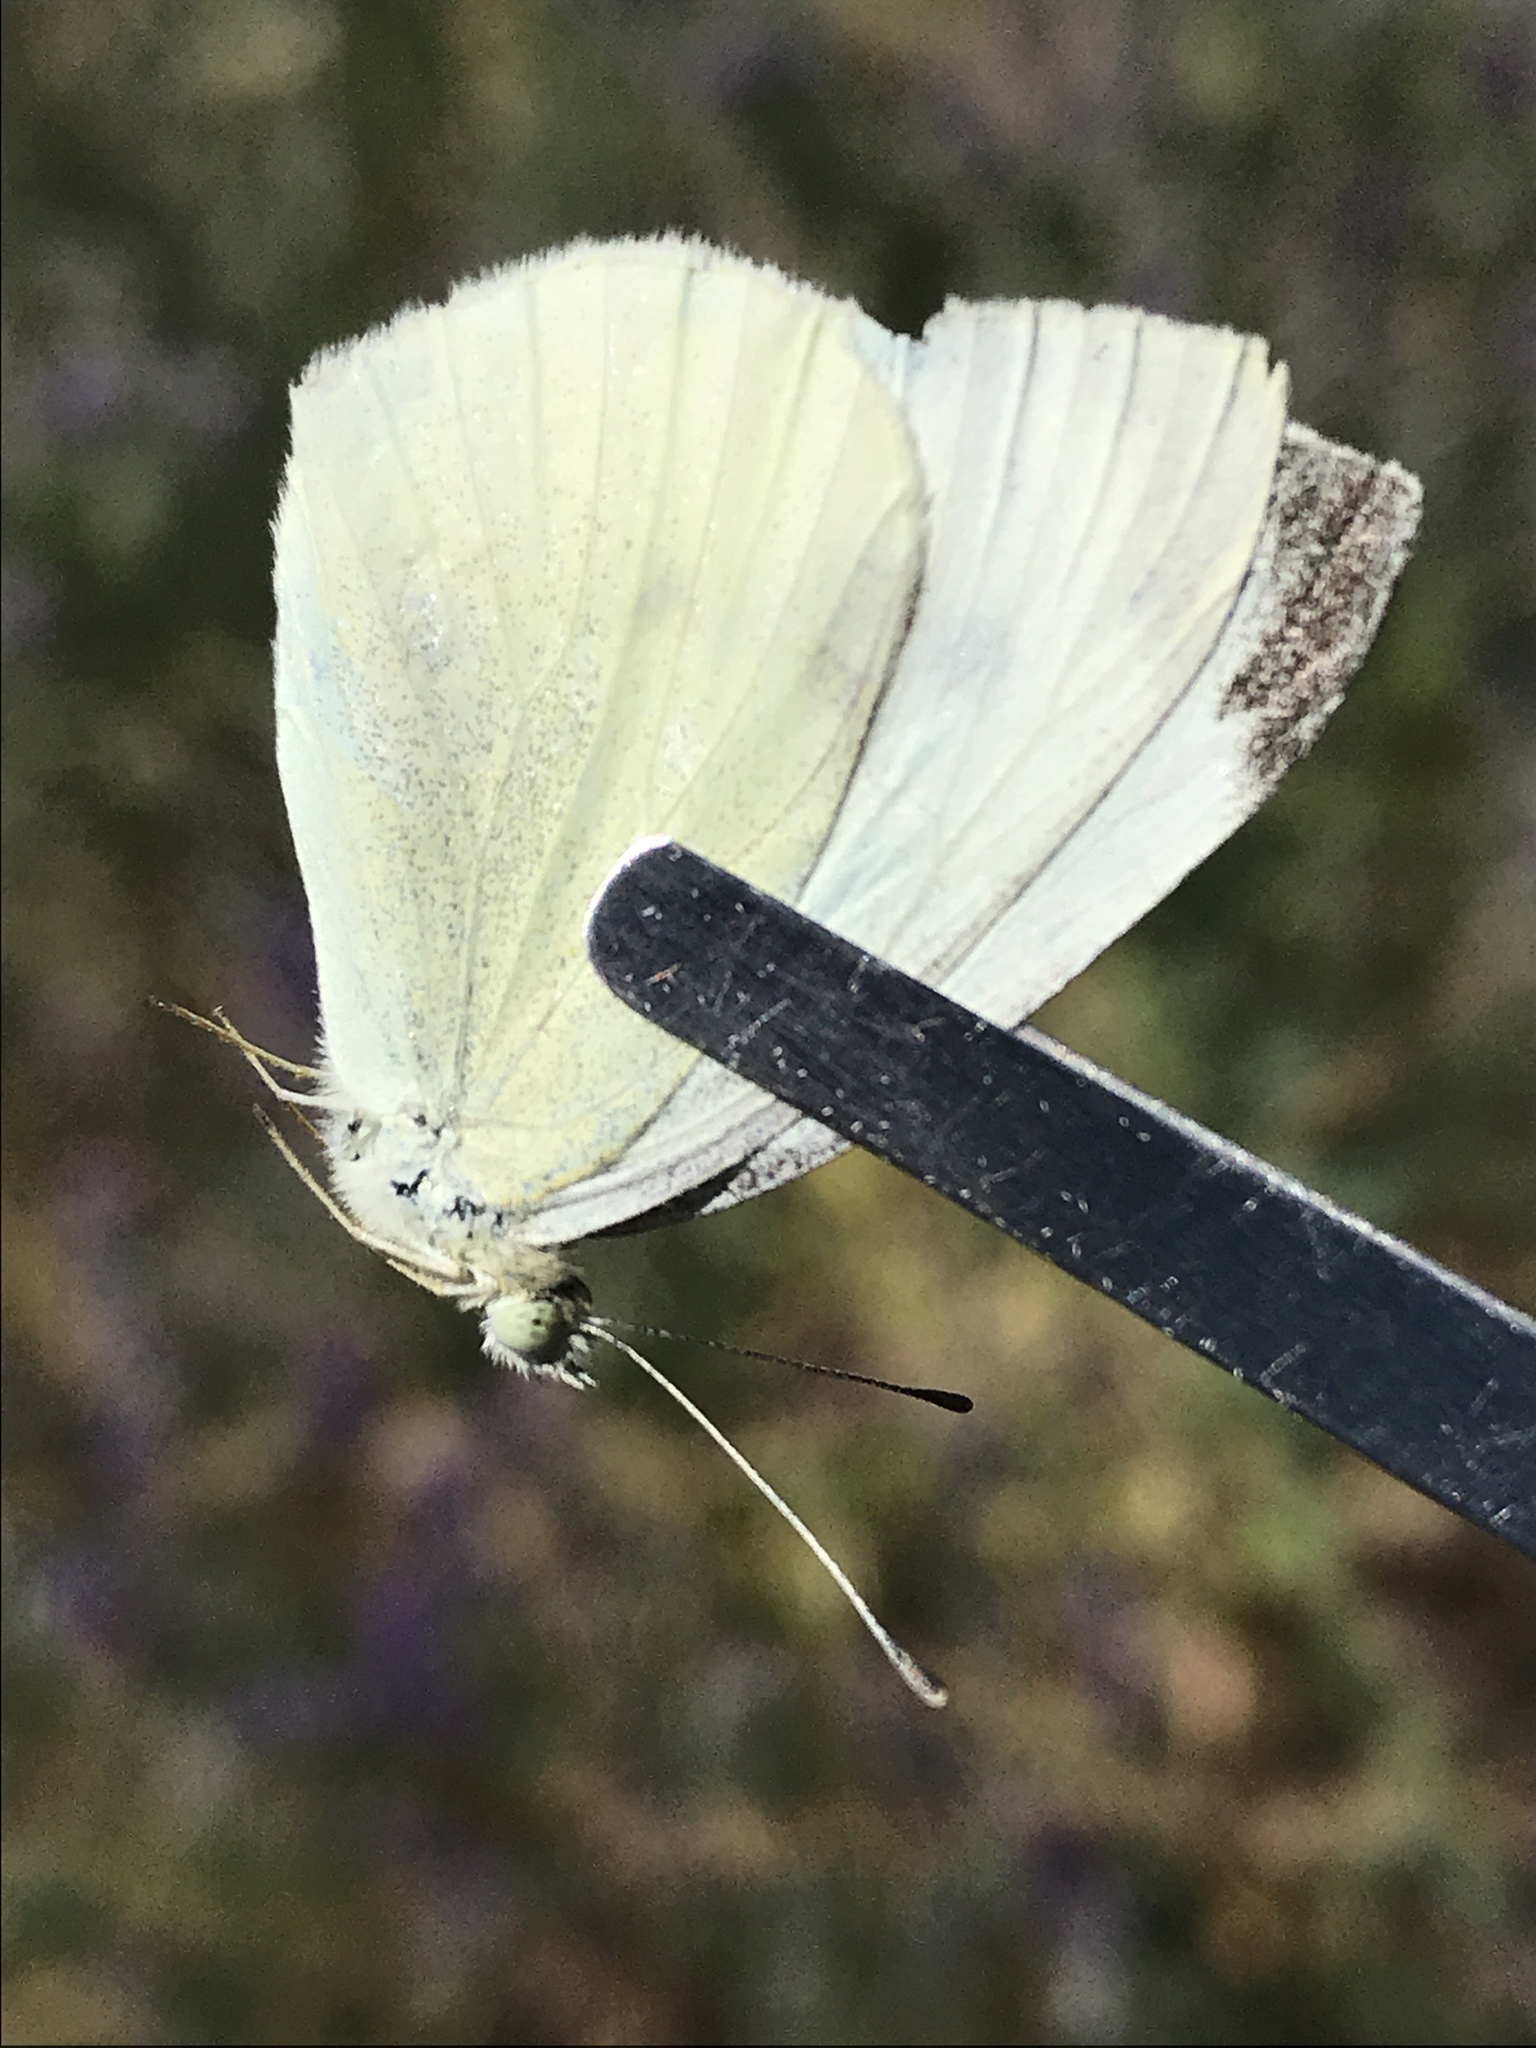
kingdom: Animalia
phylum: Arthropoda
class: Insecta
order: Lepidoptera
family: Pieridae
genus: Pieris
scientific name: Pieris rapae
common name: Small white
